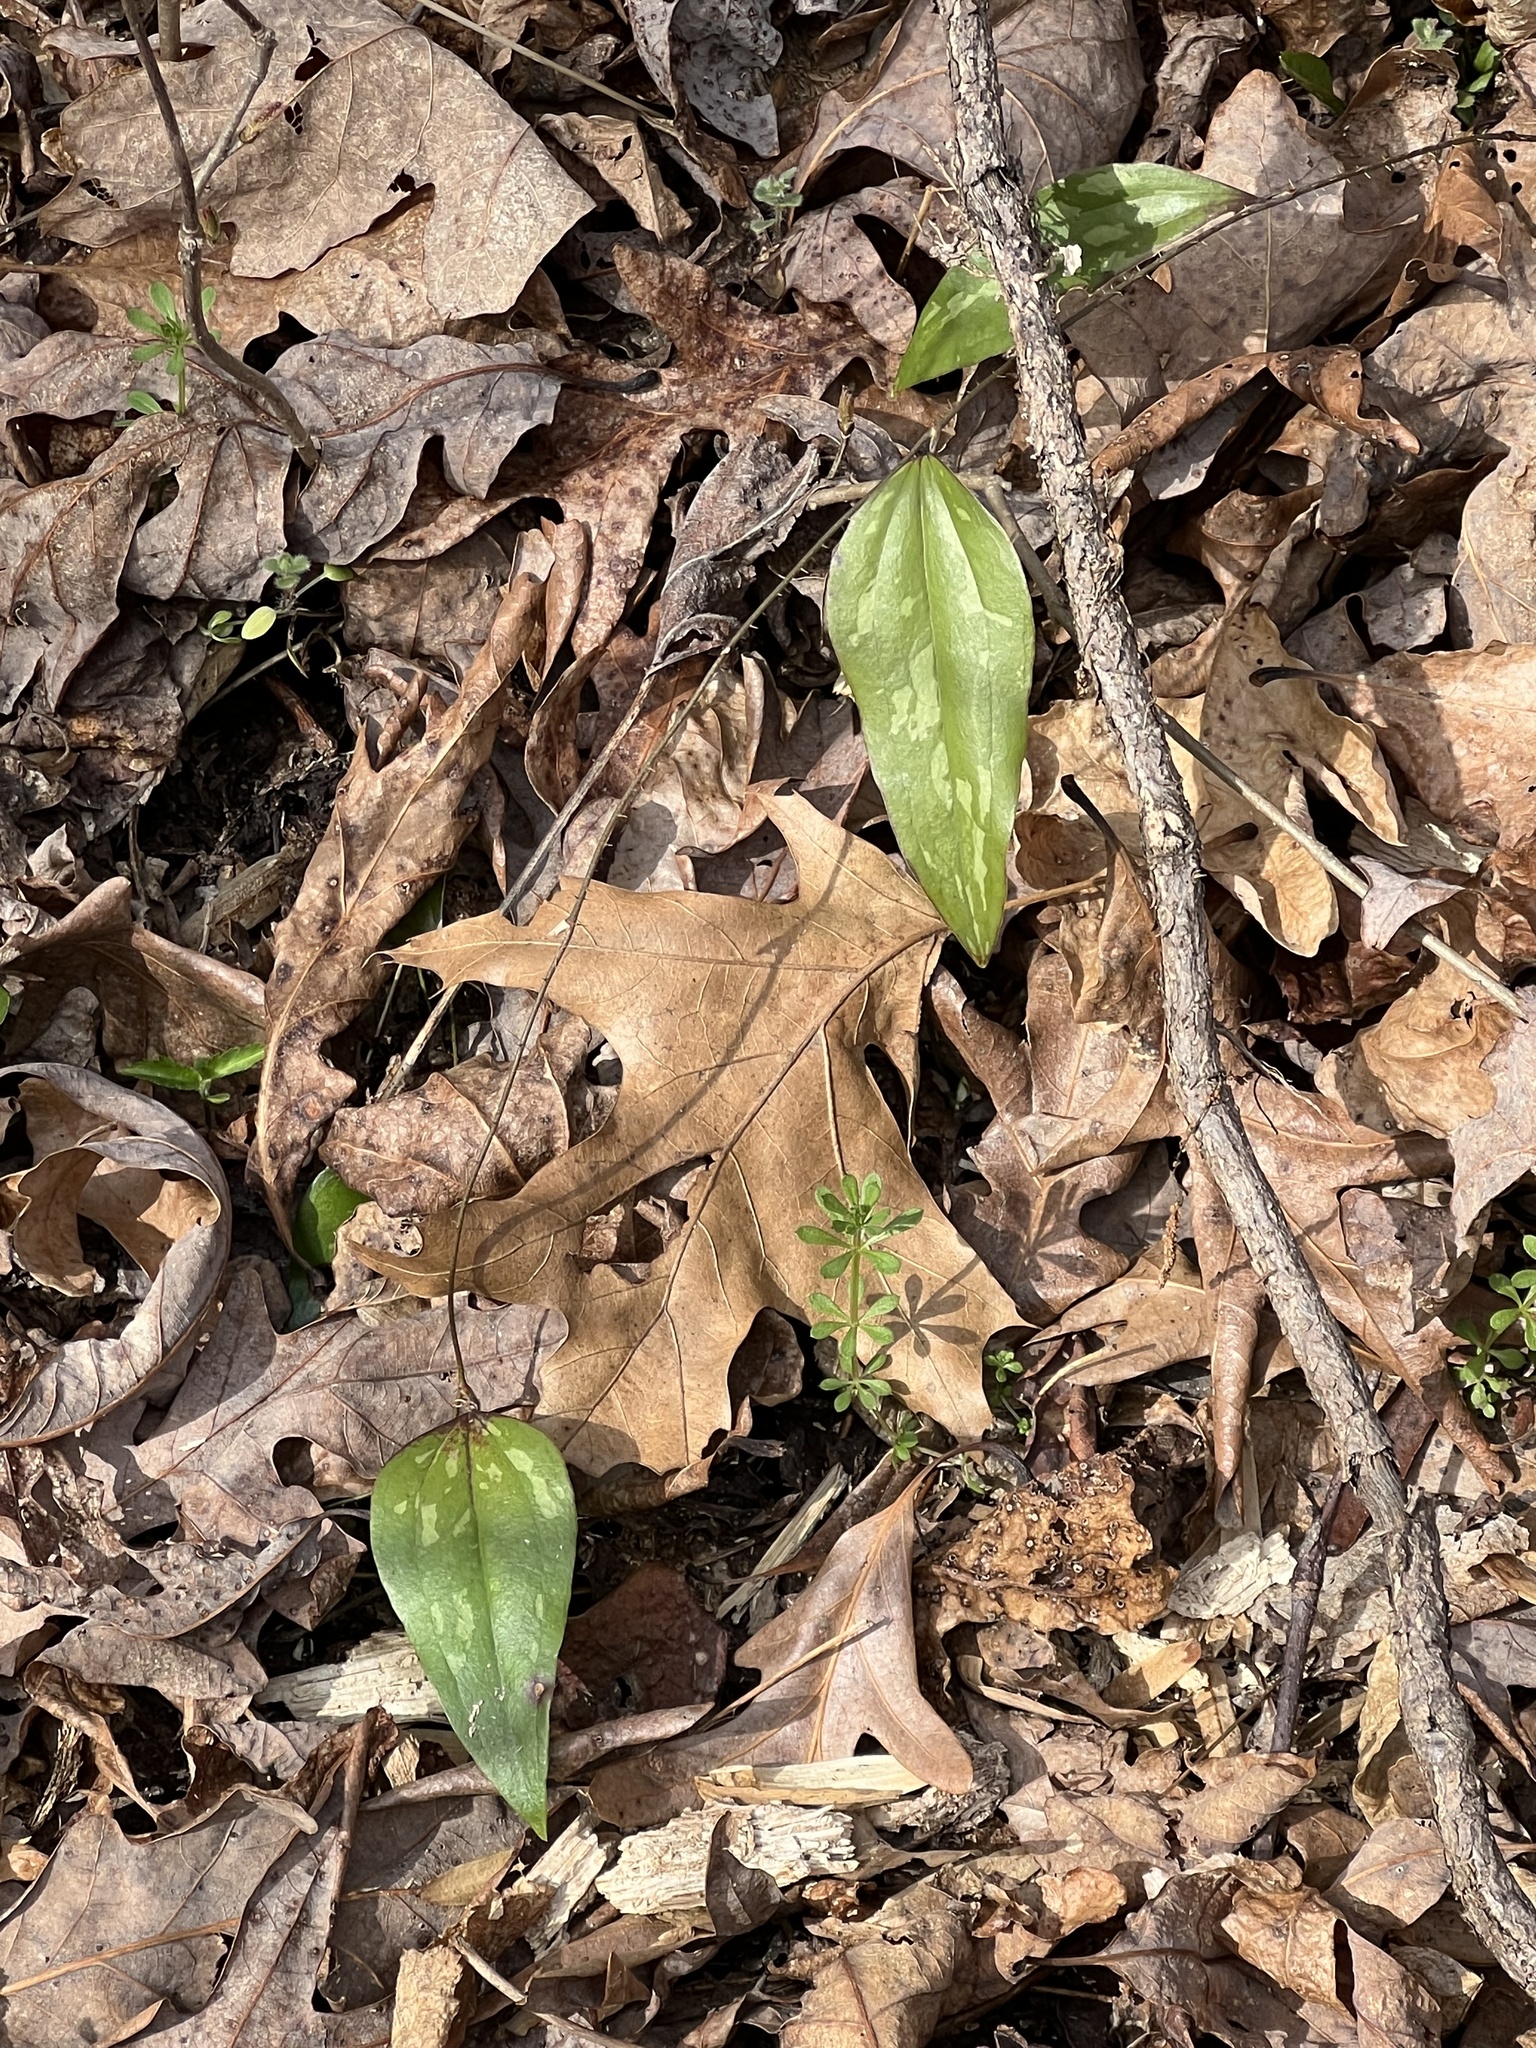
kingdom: Plantae
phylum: Tracheophyta
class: Liliopsida
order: Liliales
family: Smilacaceae
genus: Smilax
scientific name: Smilax glauca
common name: Cat greenbrier
